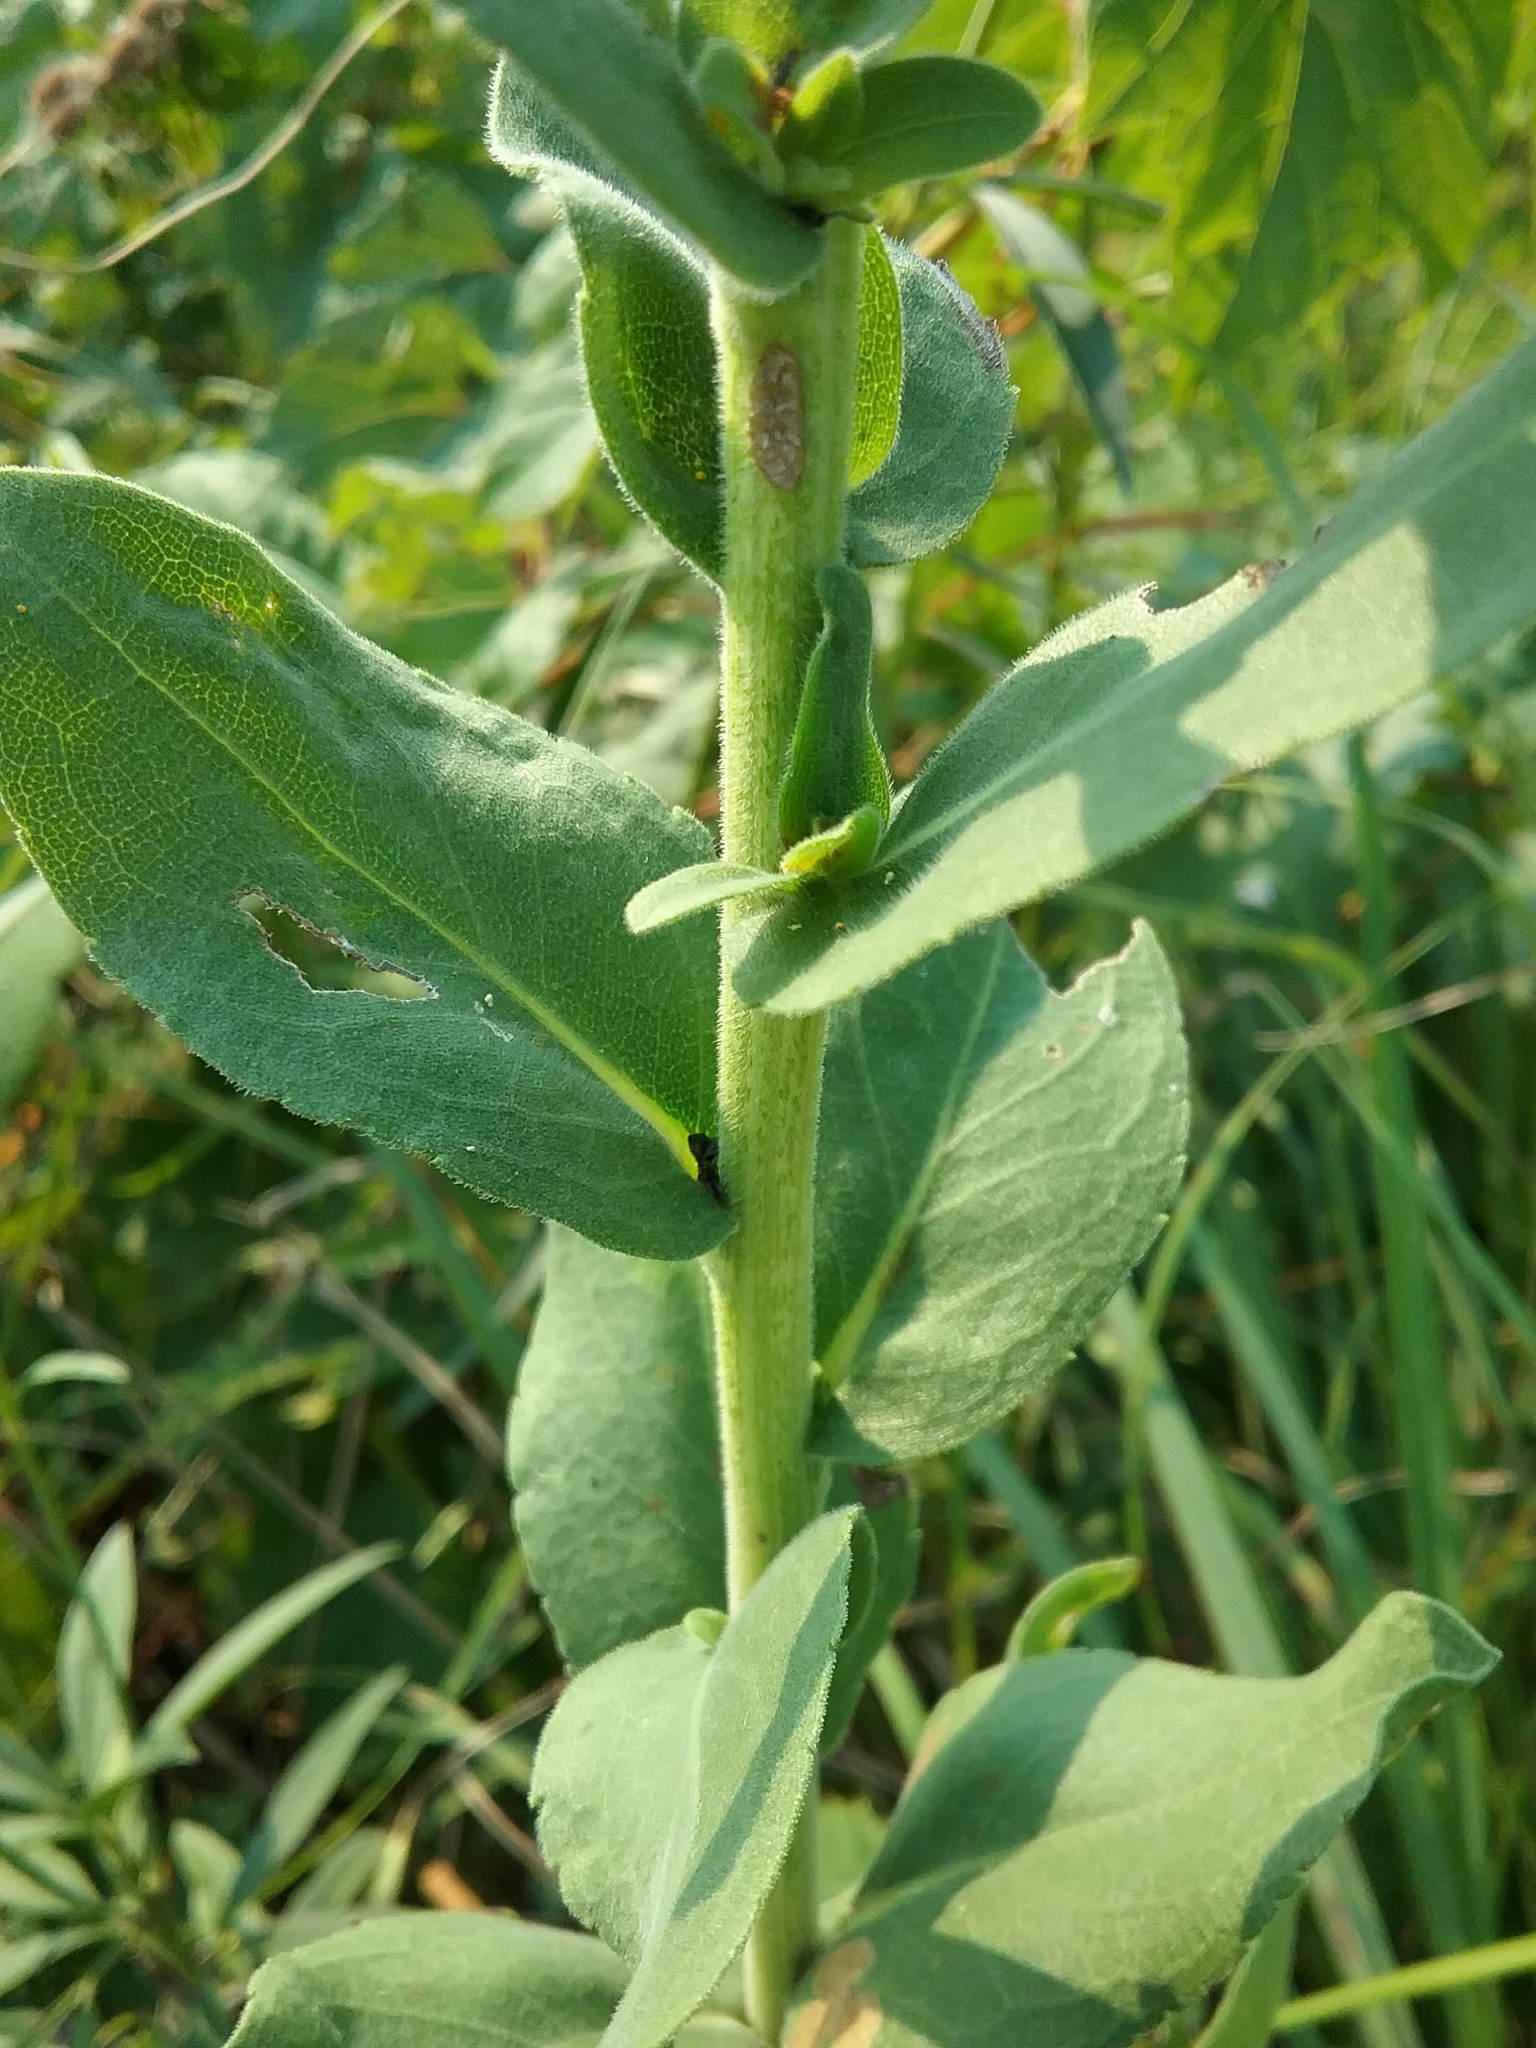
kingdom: Plantae
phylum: Tracheophyta
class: Magnoliopsida
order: Asterales
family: Asteraceae
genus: Solidago
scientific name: Solidago rigida
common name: Rigid goldenrod
